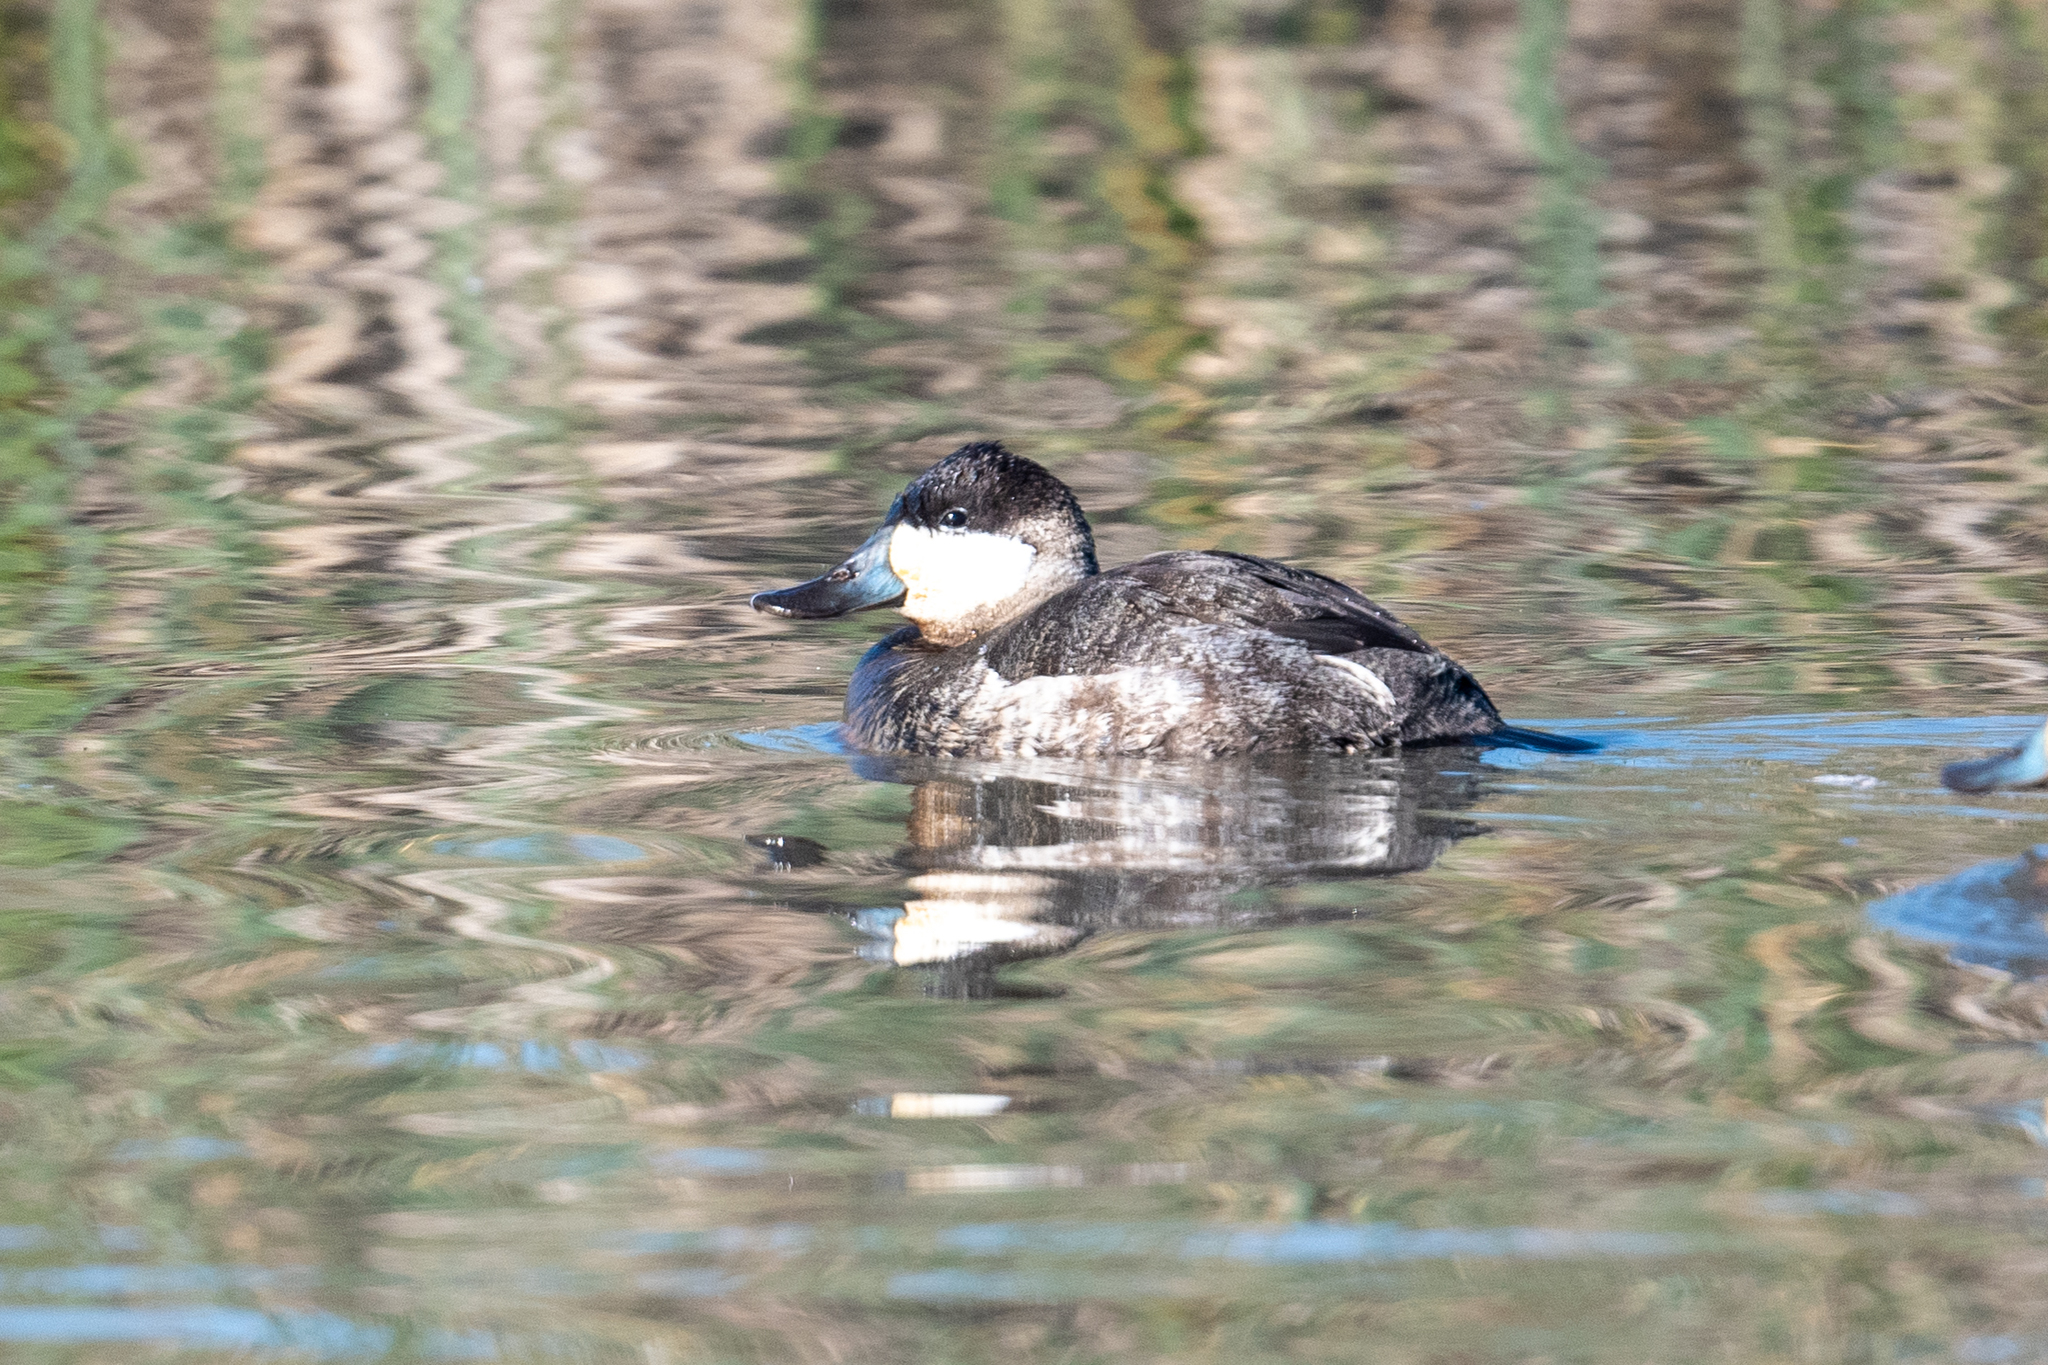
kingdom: Animalia
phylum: Chordata
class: Aves
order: Anseriformes
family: Anatidae
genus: Oxyura
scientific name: Oxyura jamaicensis
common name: Ruddy duck
